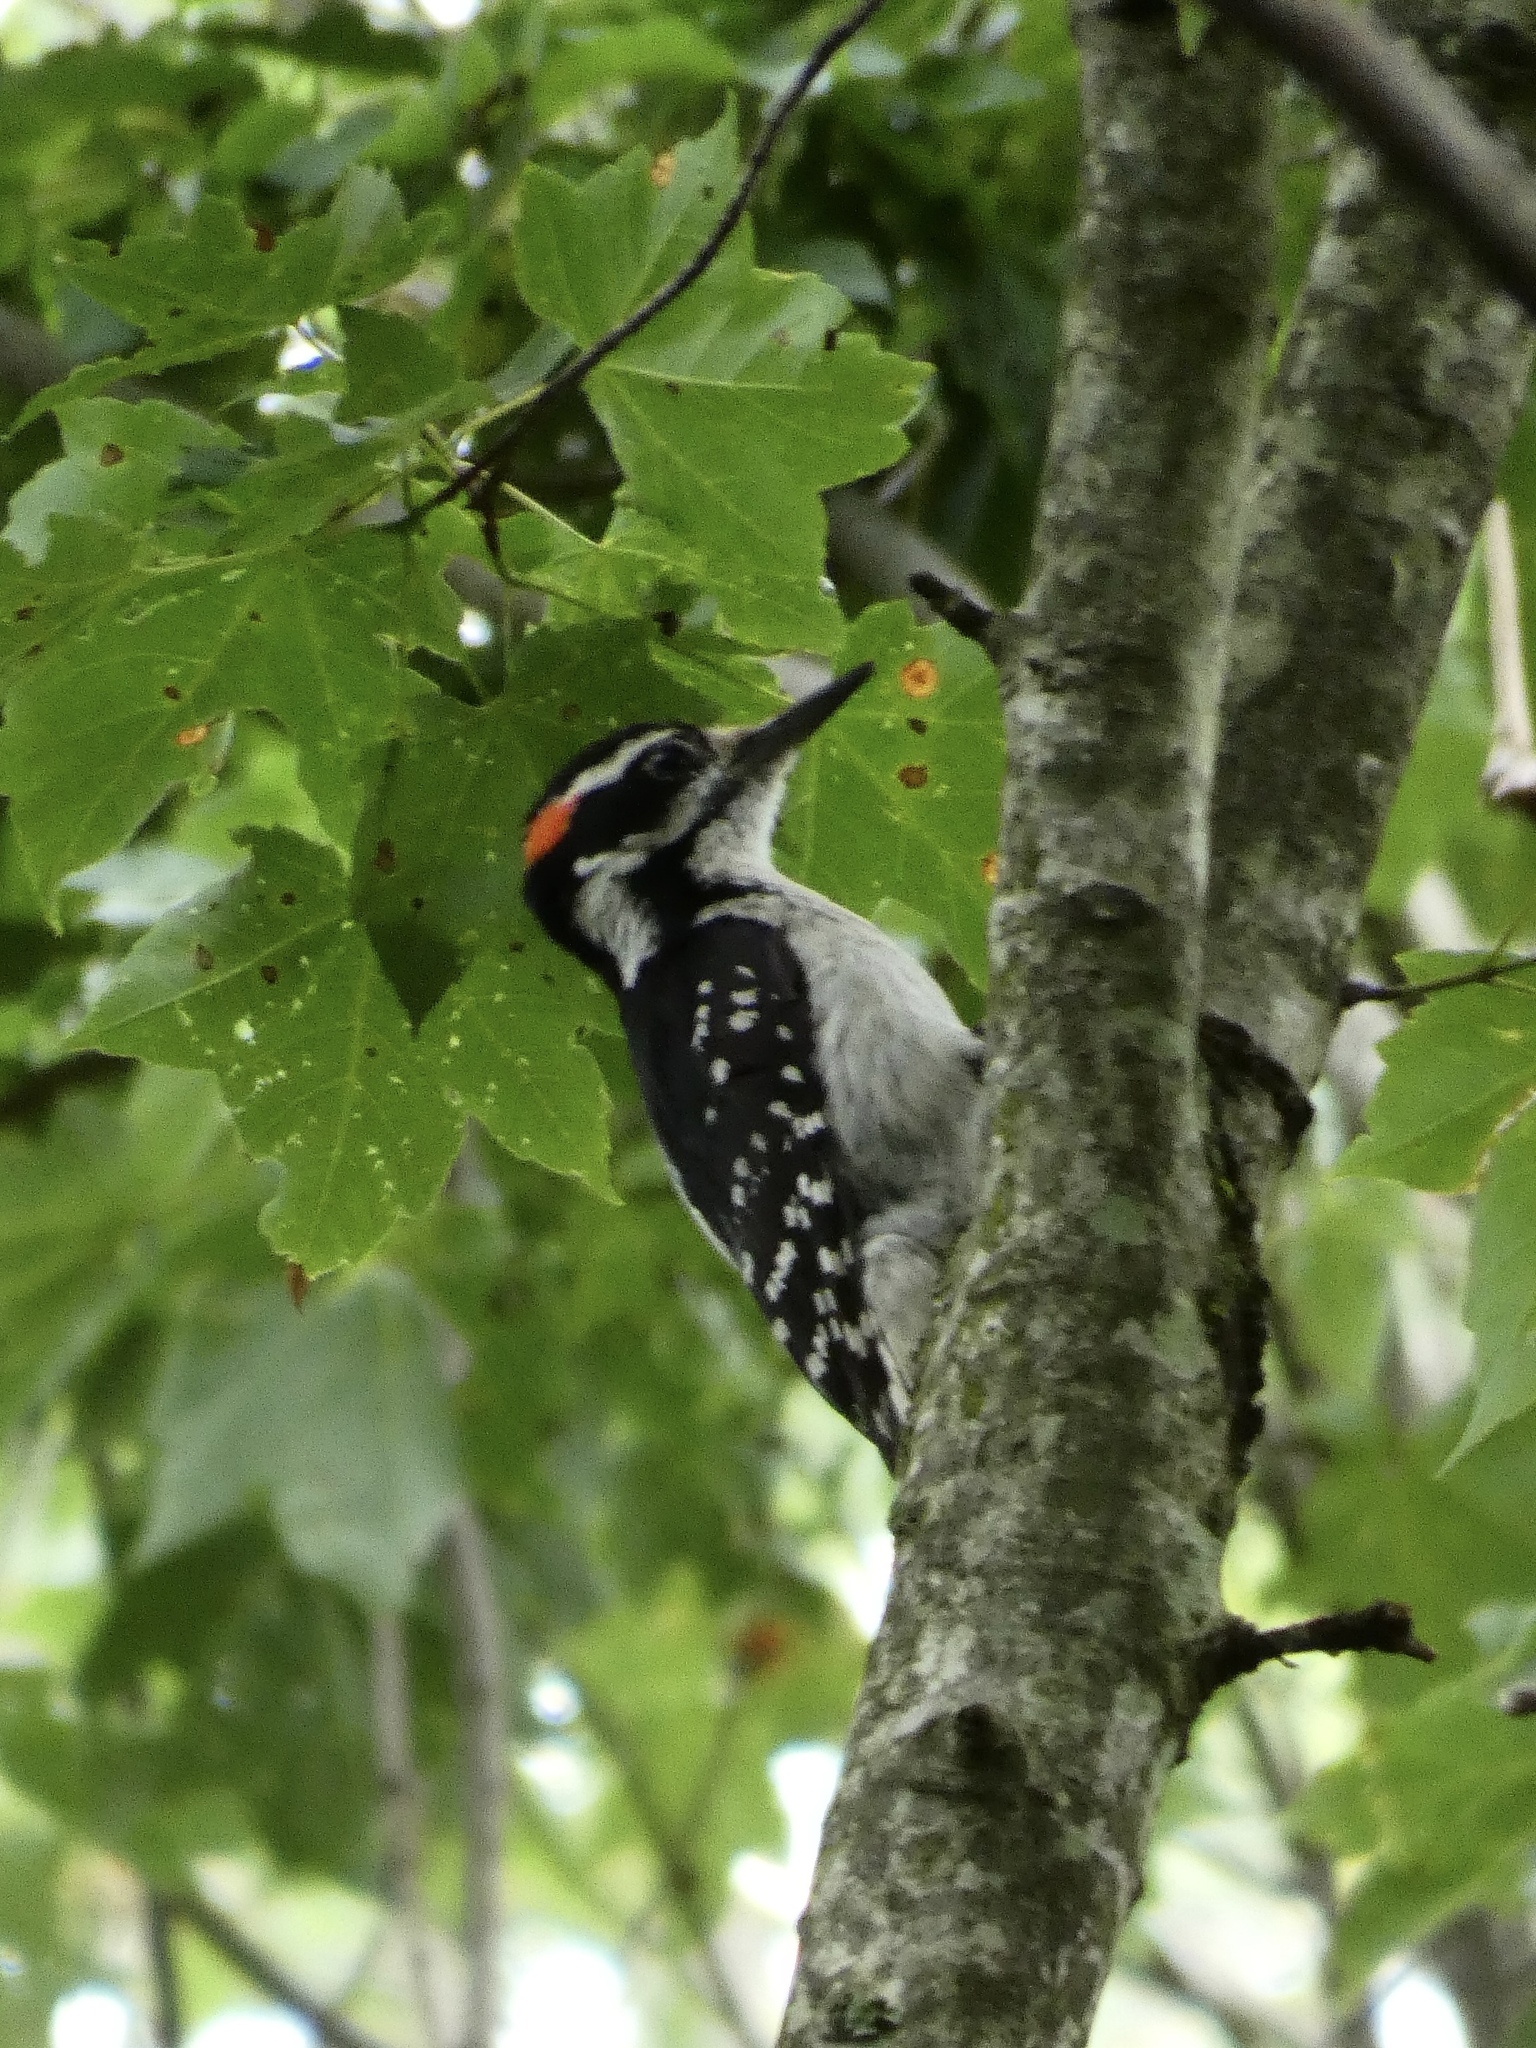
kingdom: Animalia
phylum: Chordata
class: Aves
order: Piciformes
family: Picidae
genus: Leuconotopicus
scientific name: Leuconotopicus villosus
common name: Hairy woodpecker
